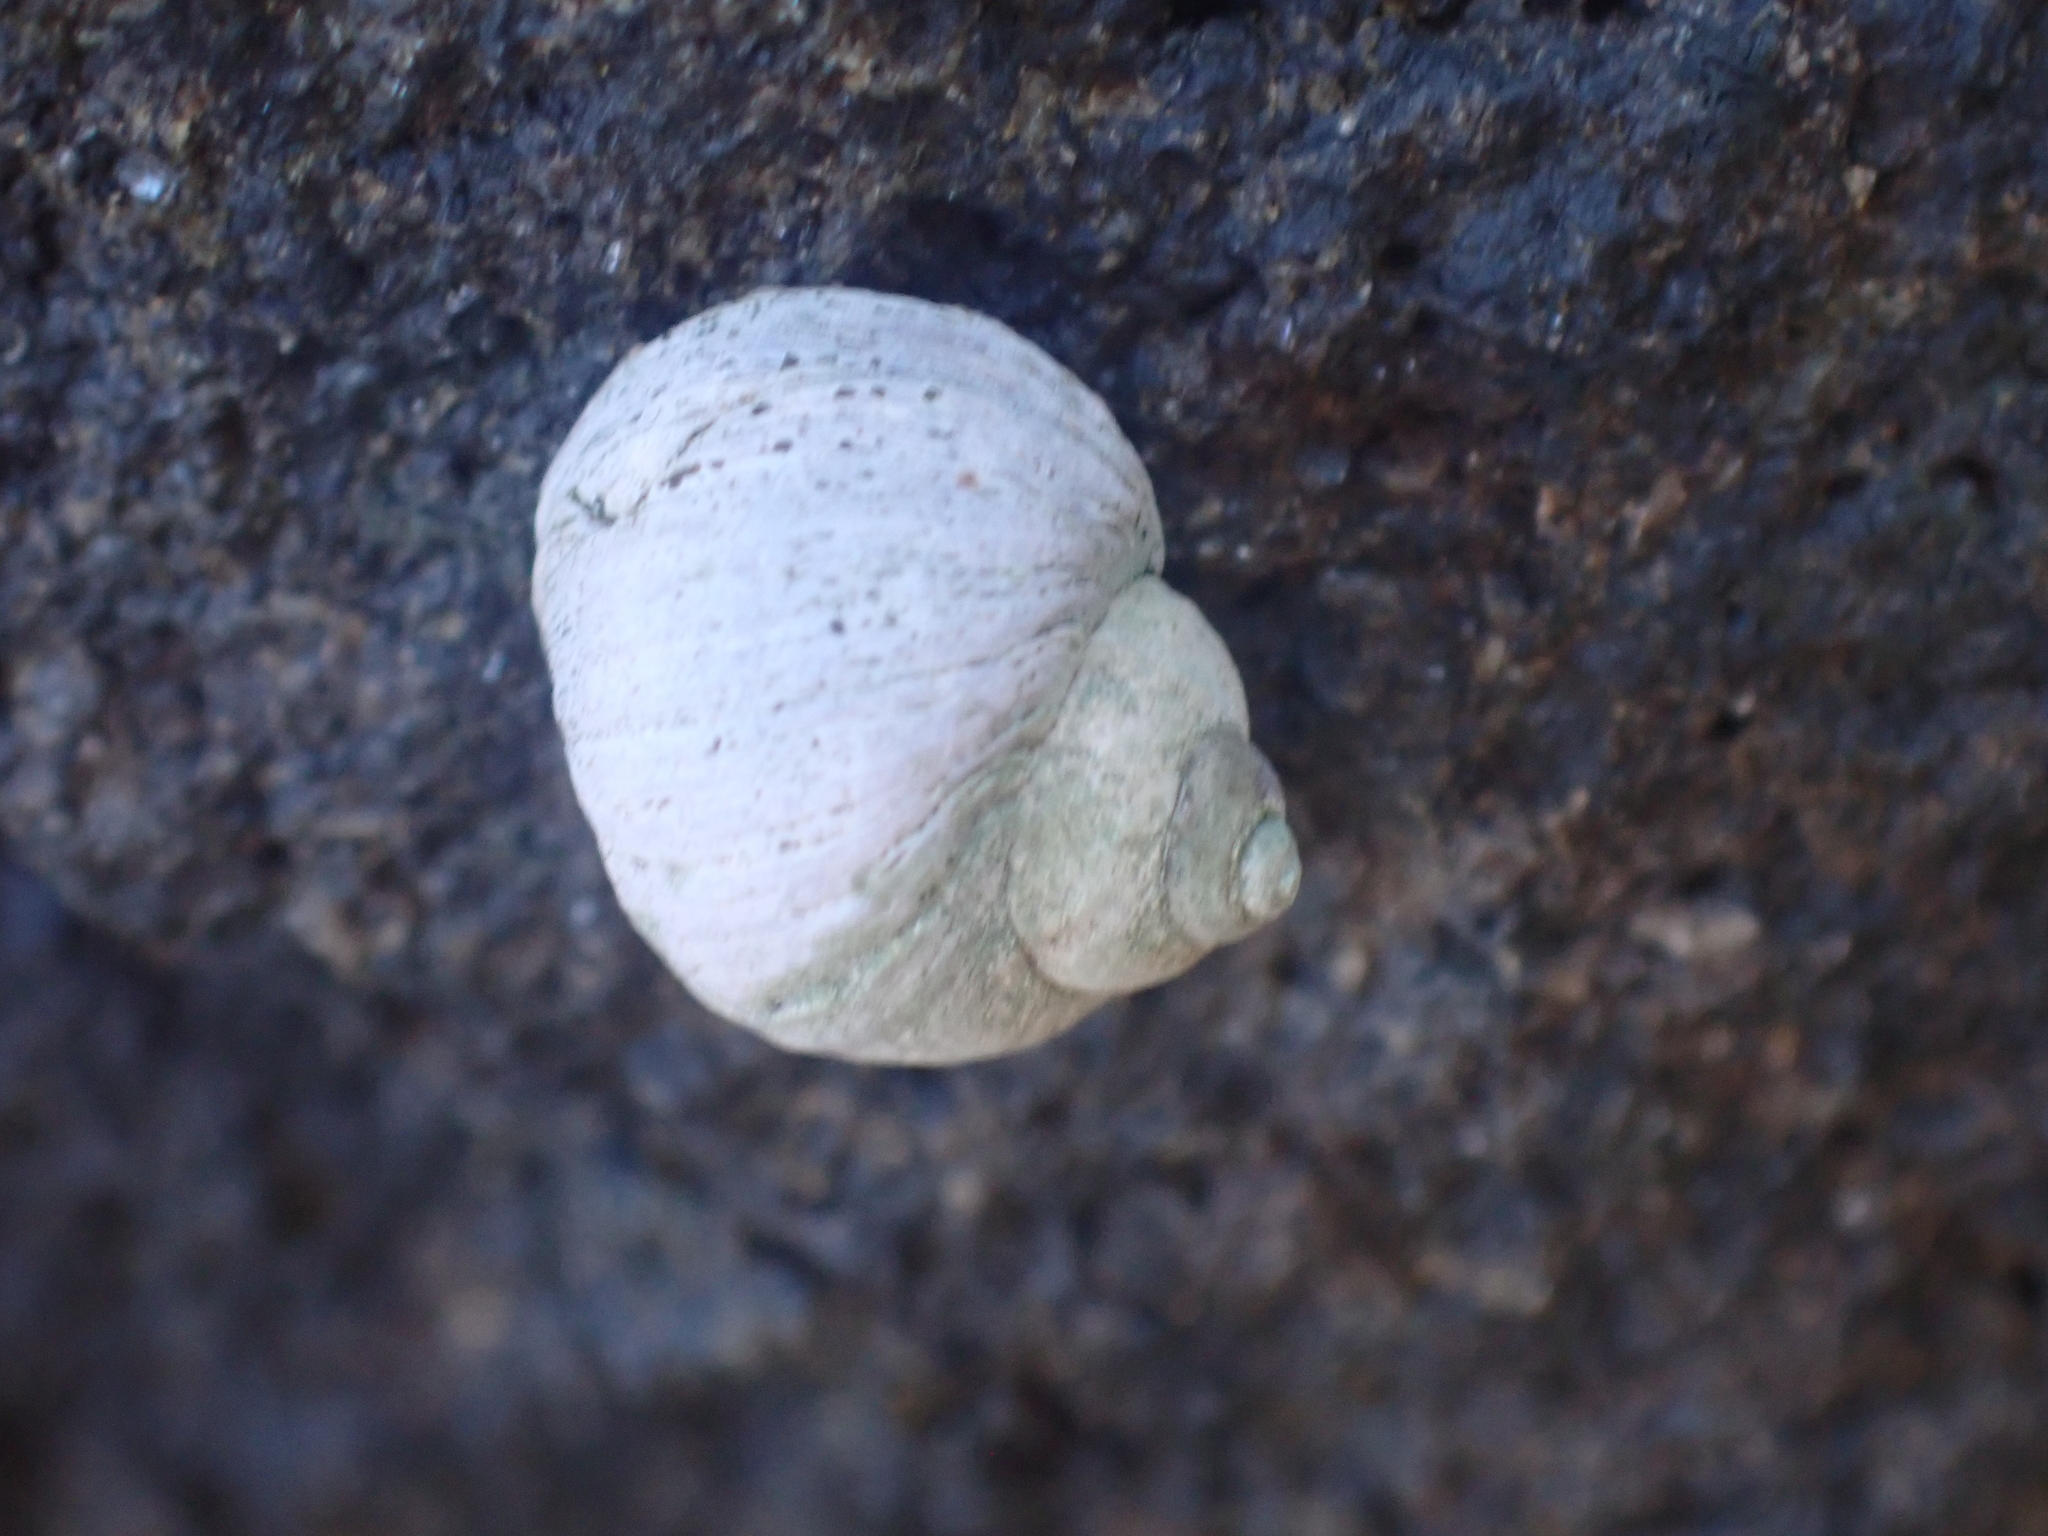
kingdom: Animalia
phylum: Mollusca
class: Gastropoda
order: Littorinimorpha
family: Littorinidae
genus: Littorina
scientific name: Littorina saxatilis
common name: Black-lined periwinkle
